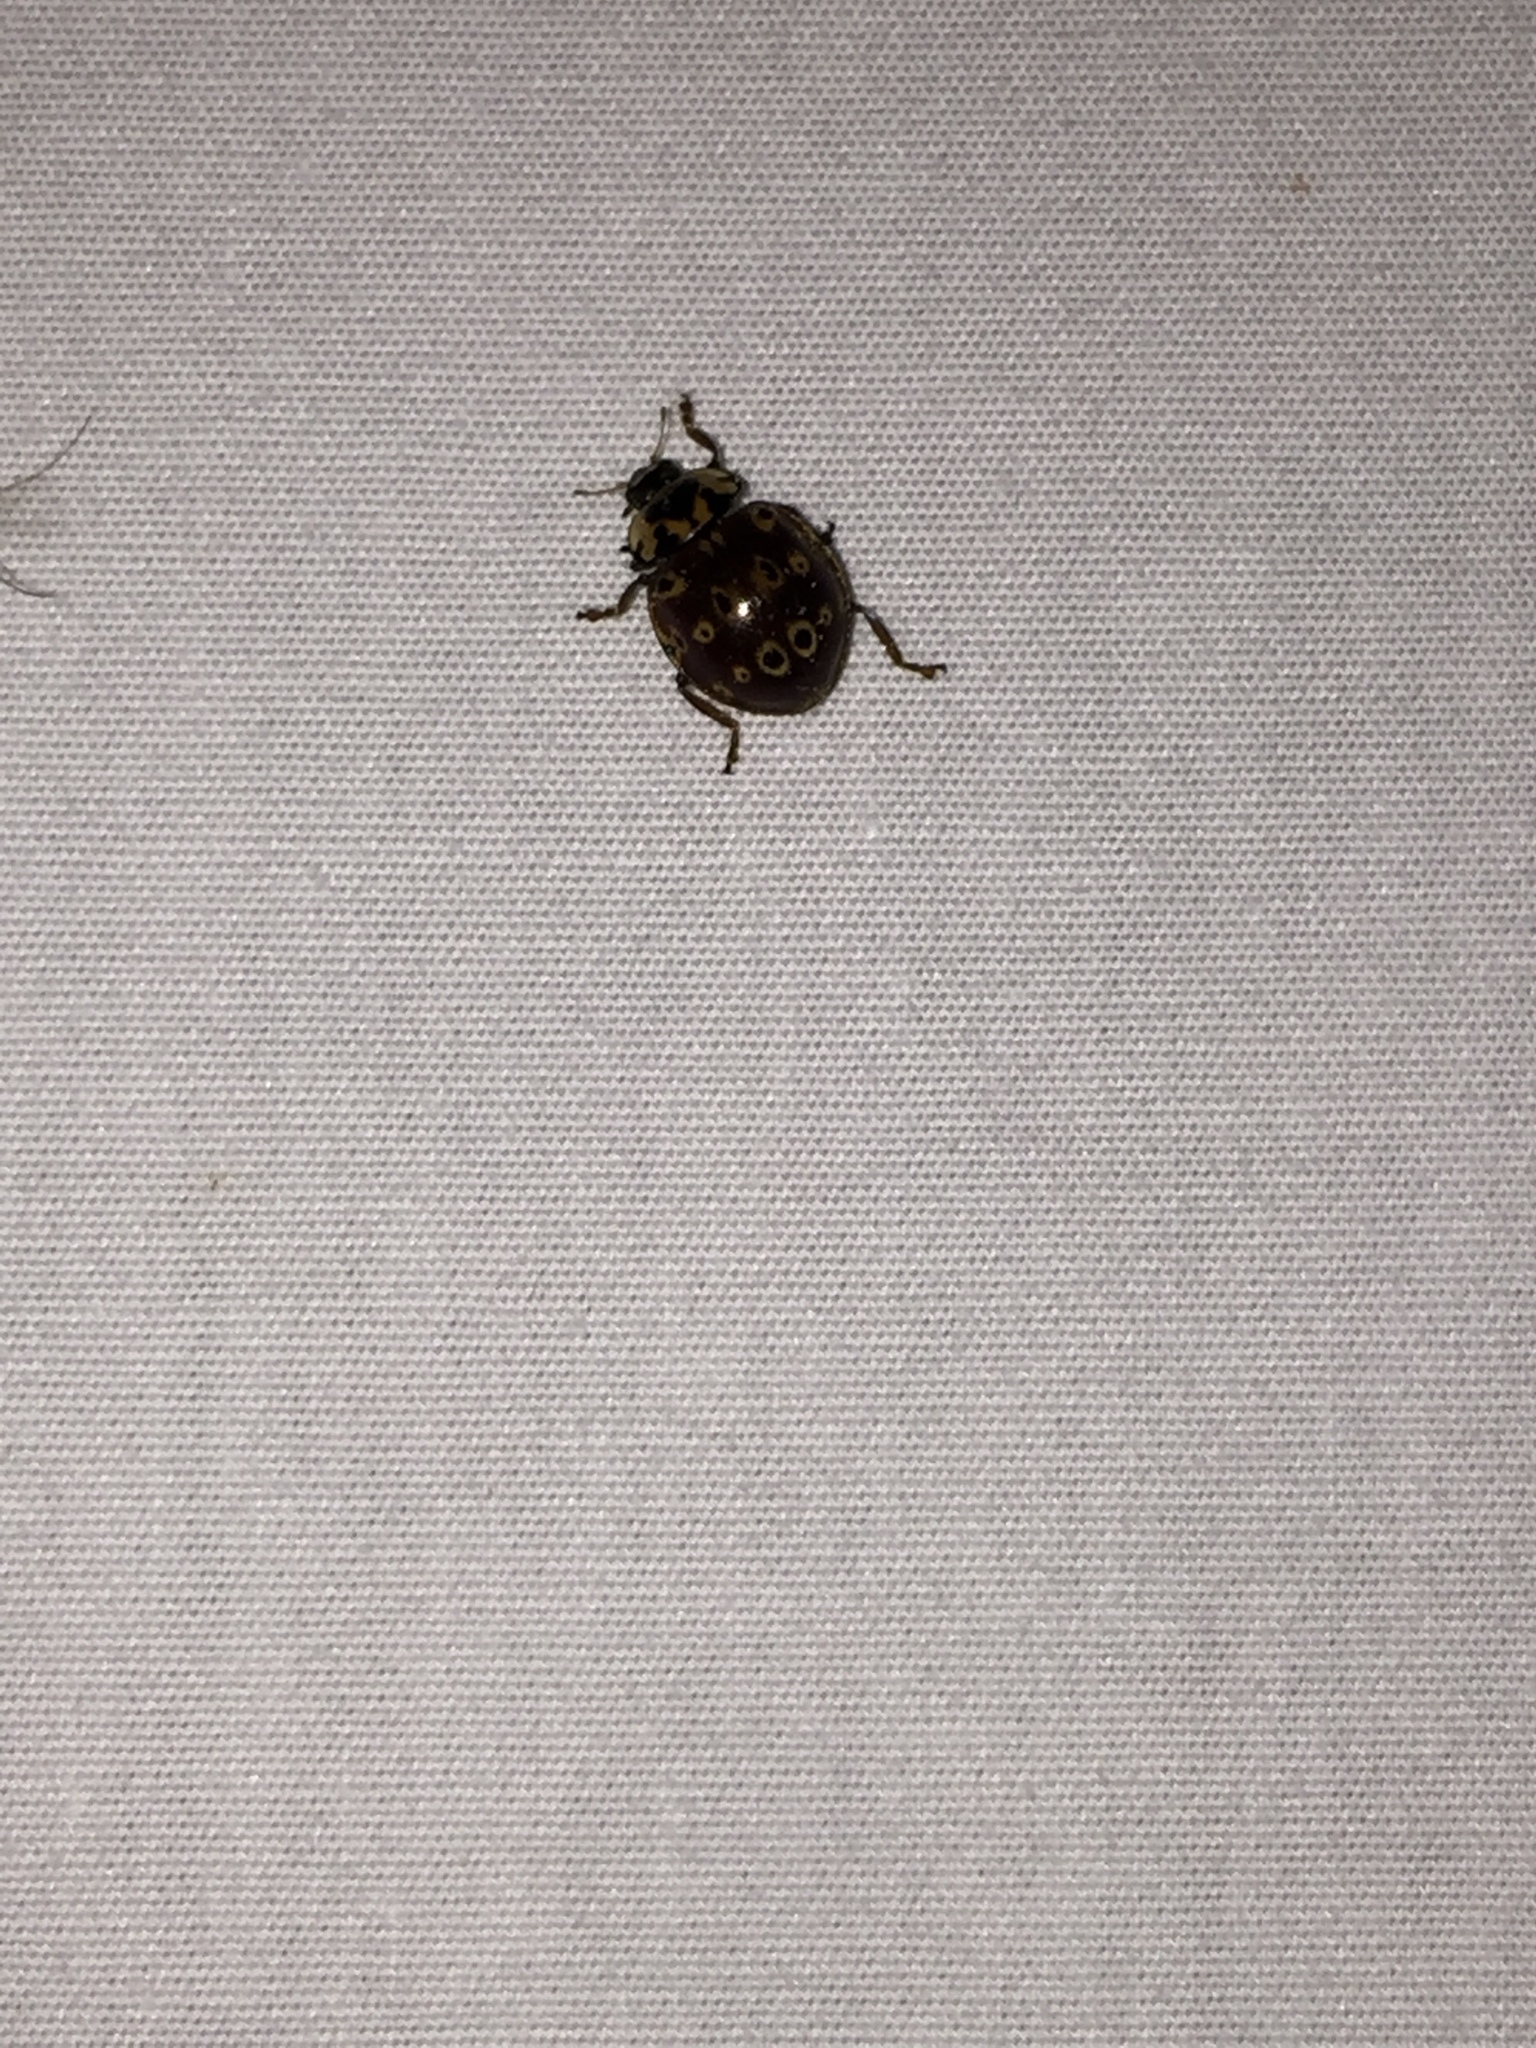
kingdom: Animalia
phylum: Arthropoda
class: Insecta
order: Coleoptera
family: Coccinellidae
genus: Anatis
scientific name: Anatis mali
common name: Eye-spotted lady beetle
